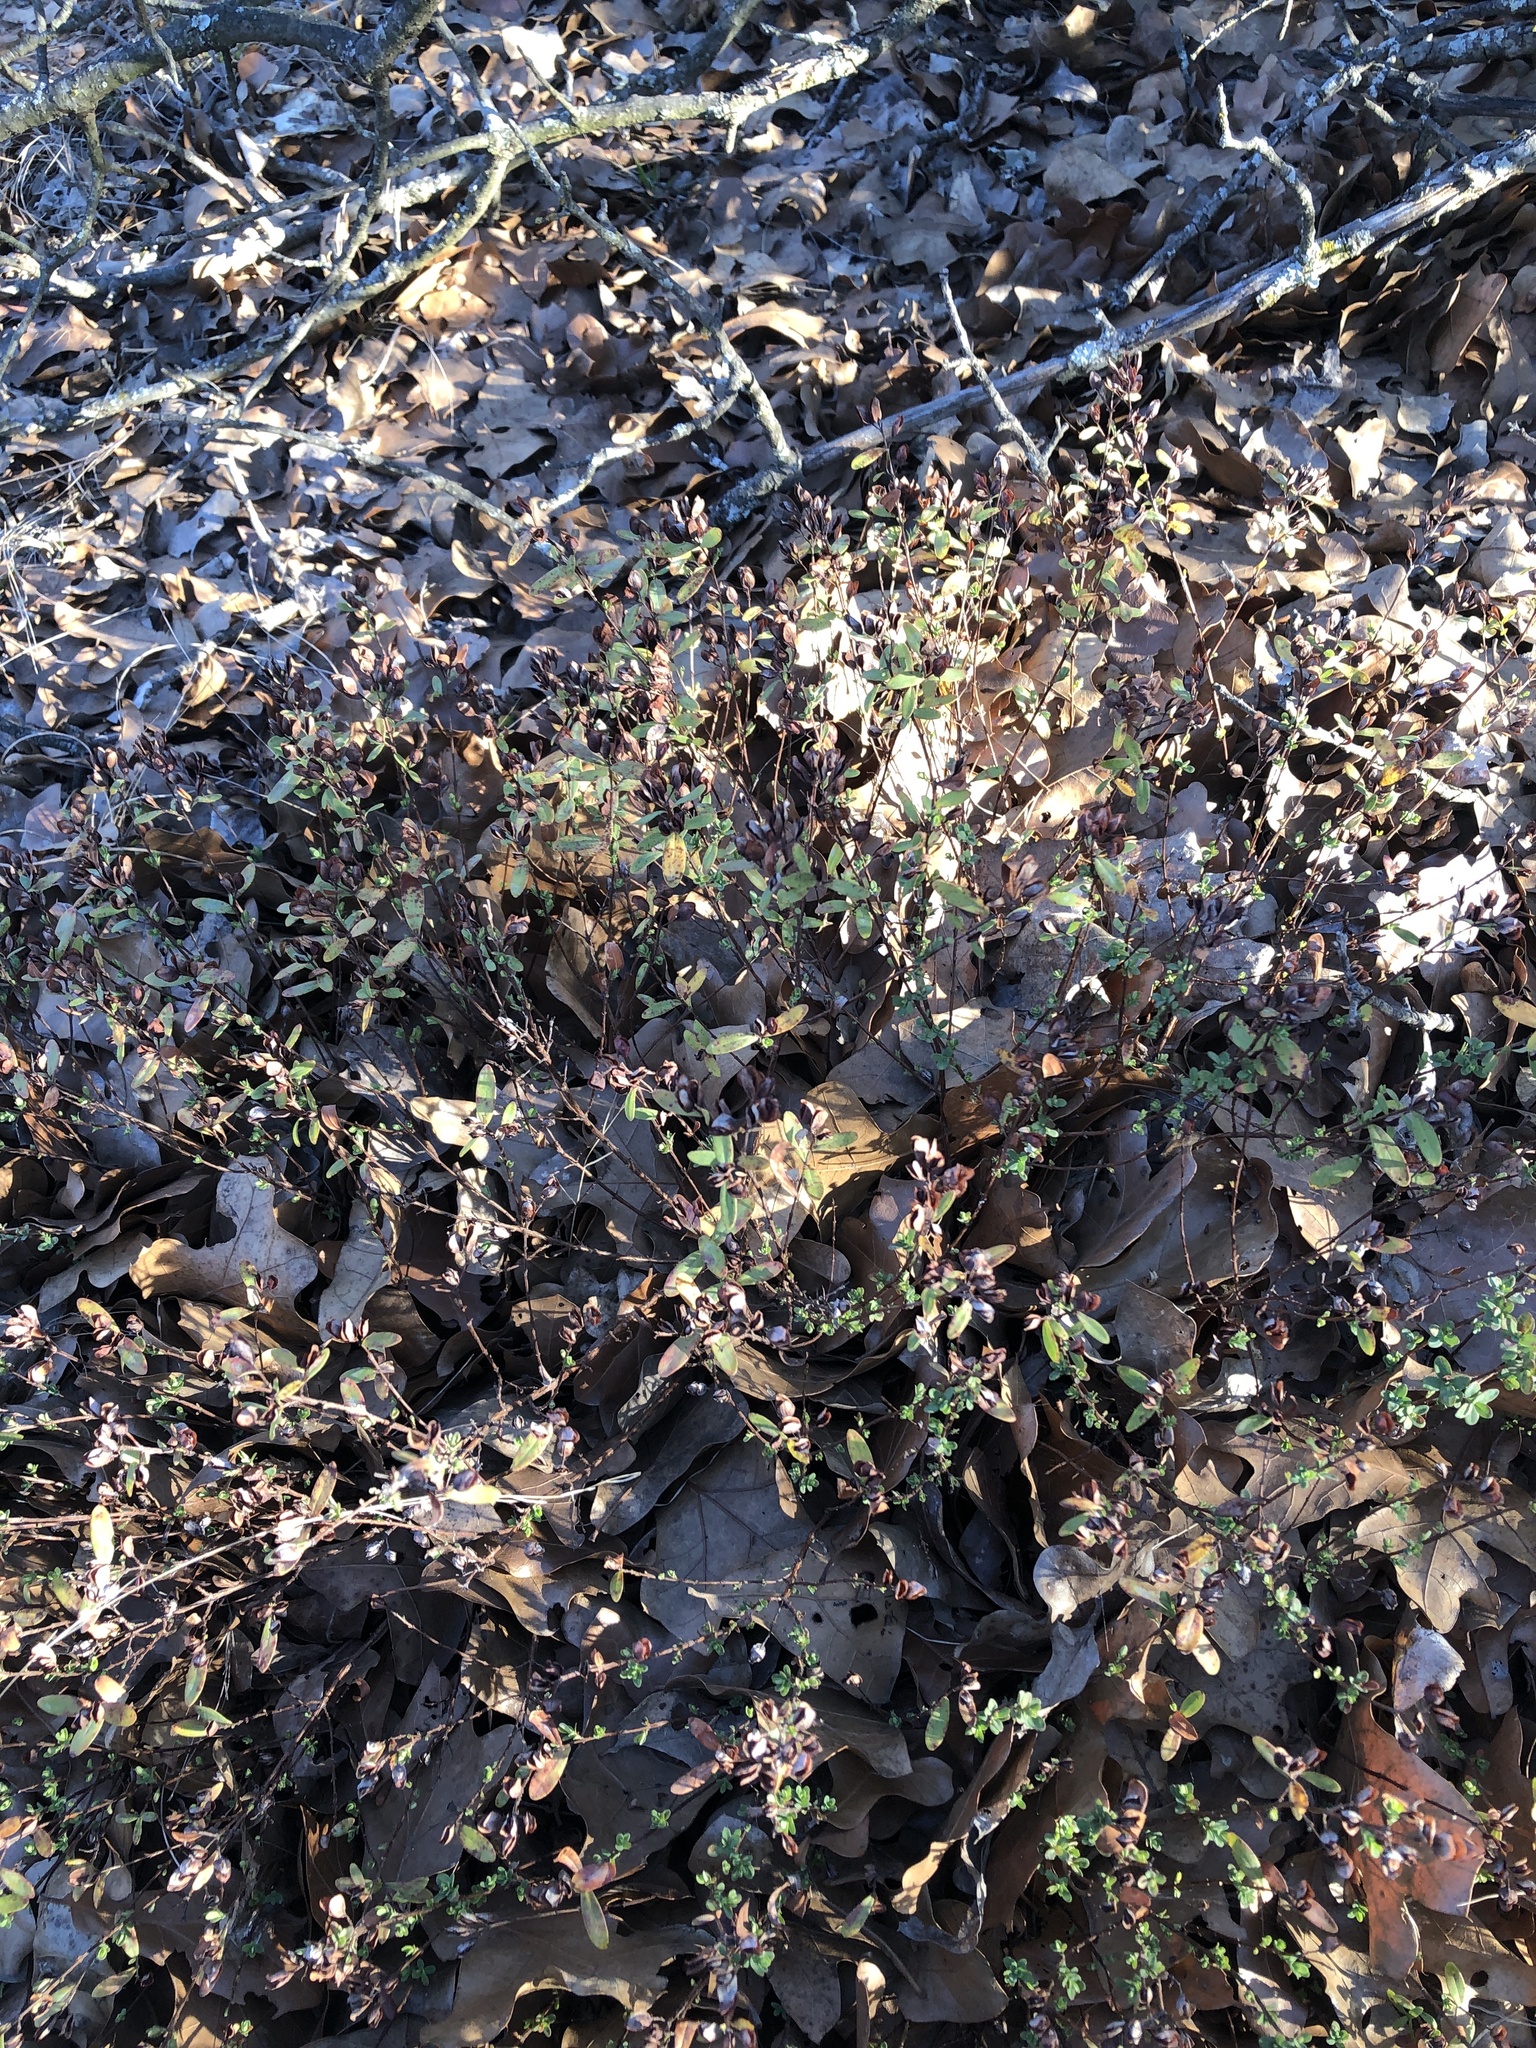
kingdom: Plantae
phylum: Tracheophyta
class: Magnoliopsida
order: Malpighiales
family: Hypericaceae
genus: Hypericum
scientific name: Hypericum hypericoides
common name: St. andrew's cross
